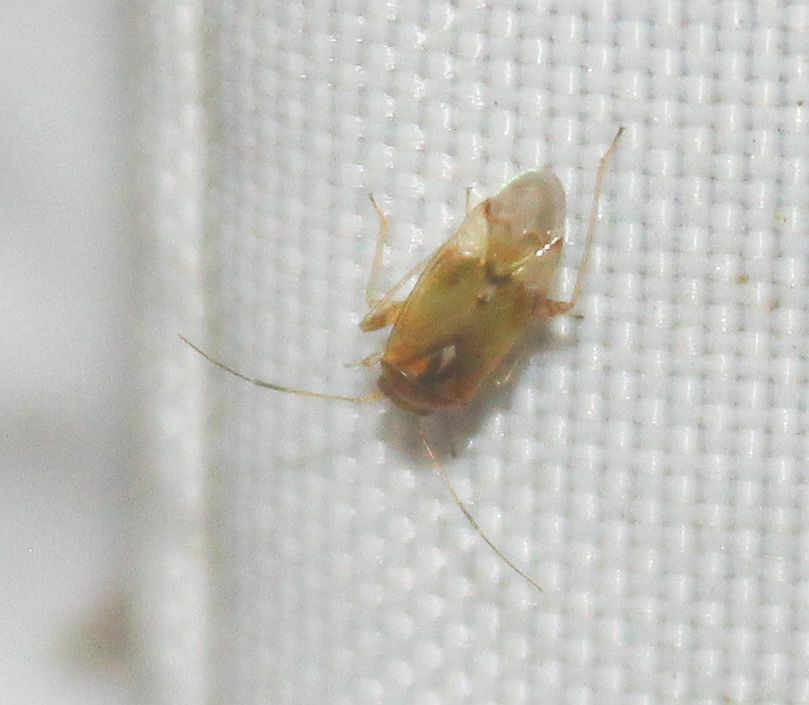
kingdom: Animalia
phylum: Arthropoda
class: Insecta
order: Hemiptera
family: Miridae
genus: Pinalitus
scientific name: Pinalitus cervinus
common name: Plant bug
